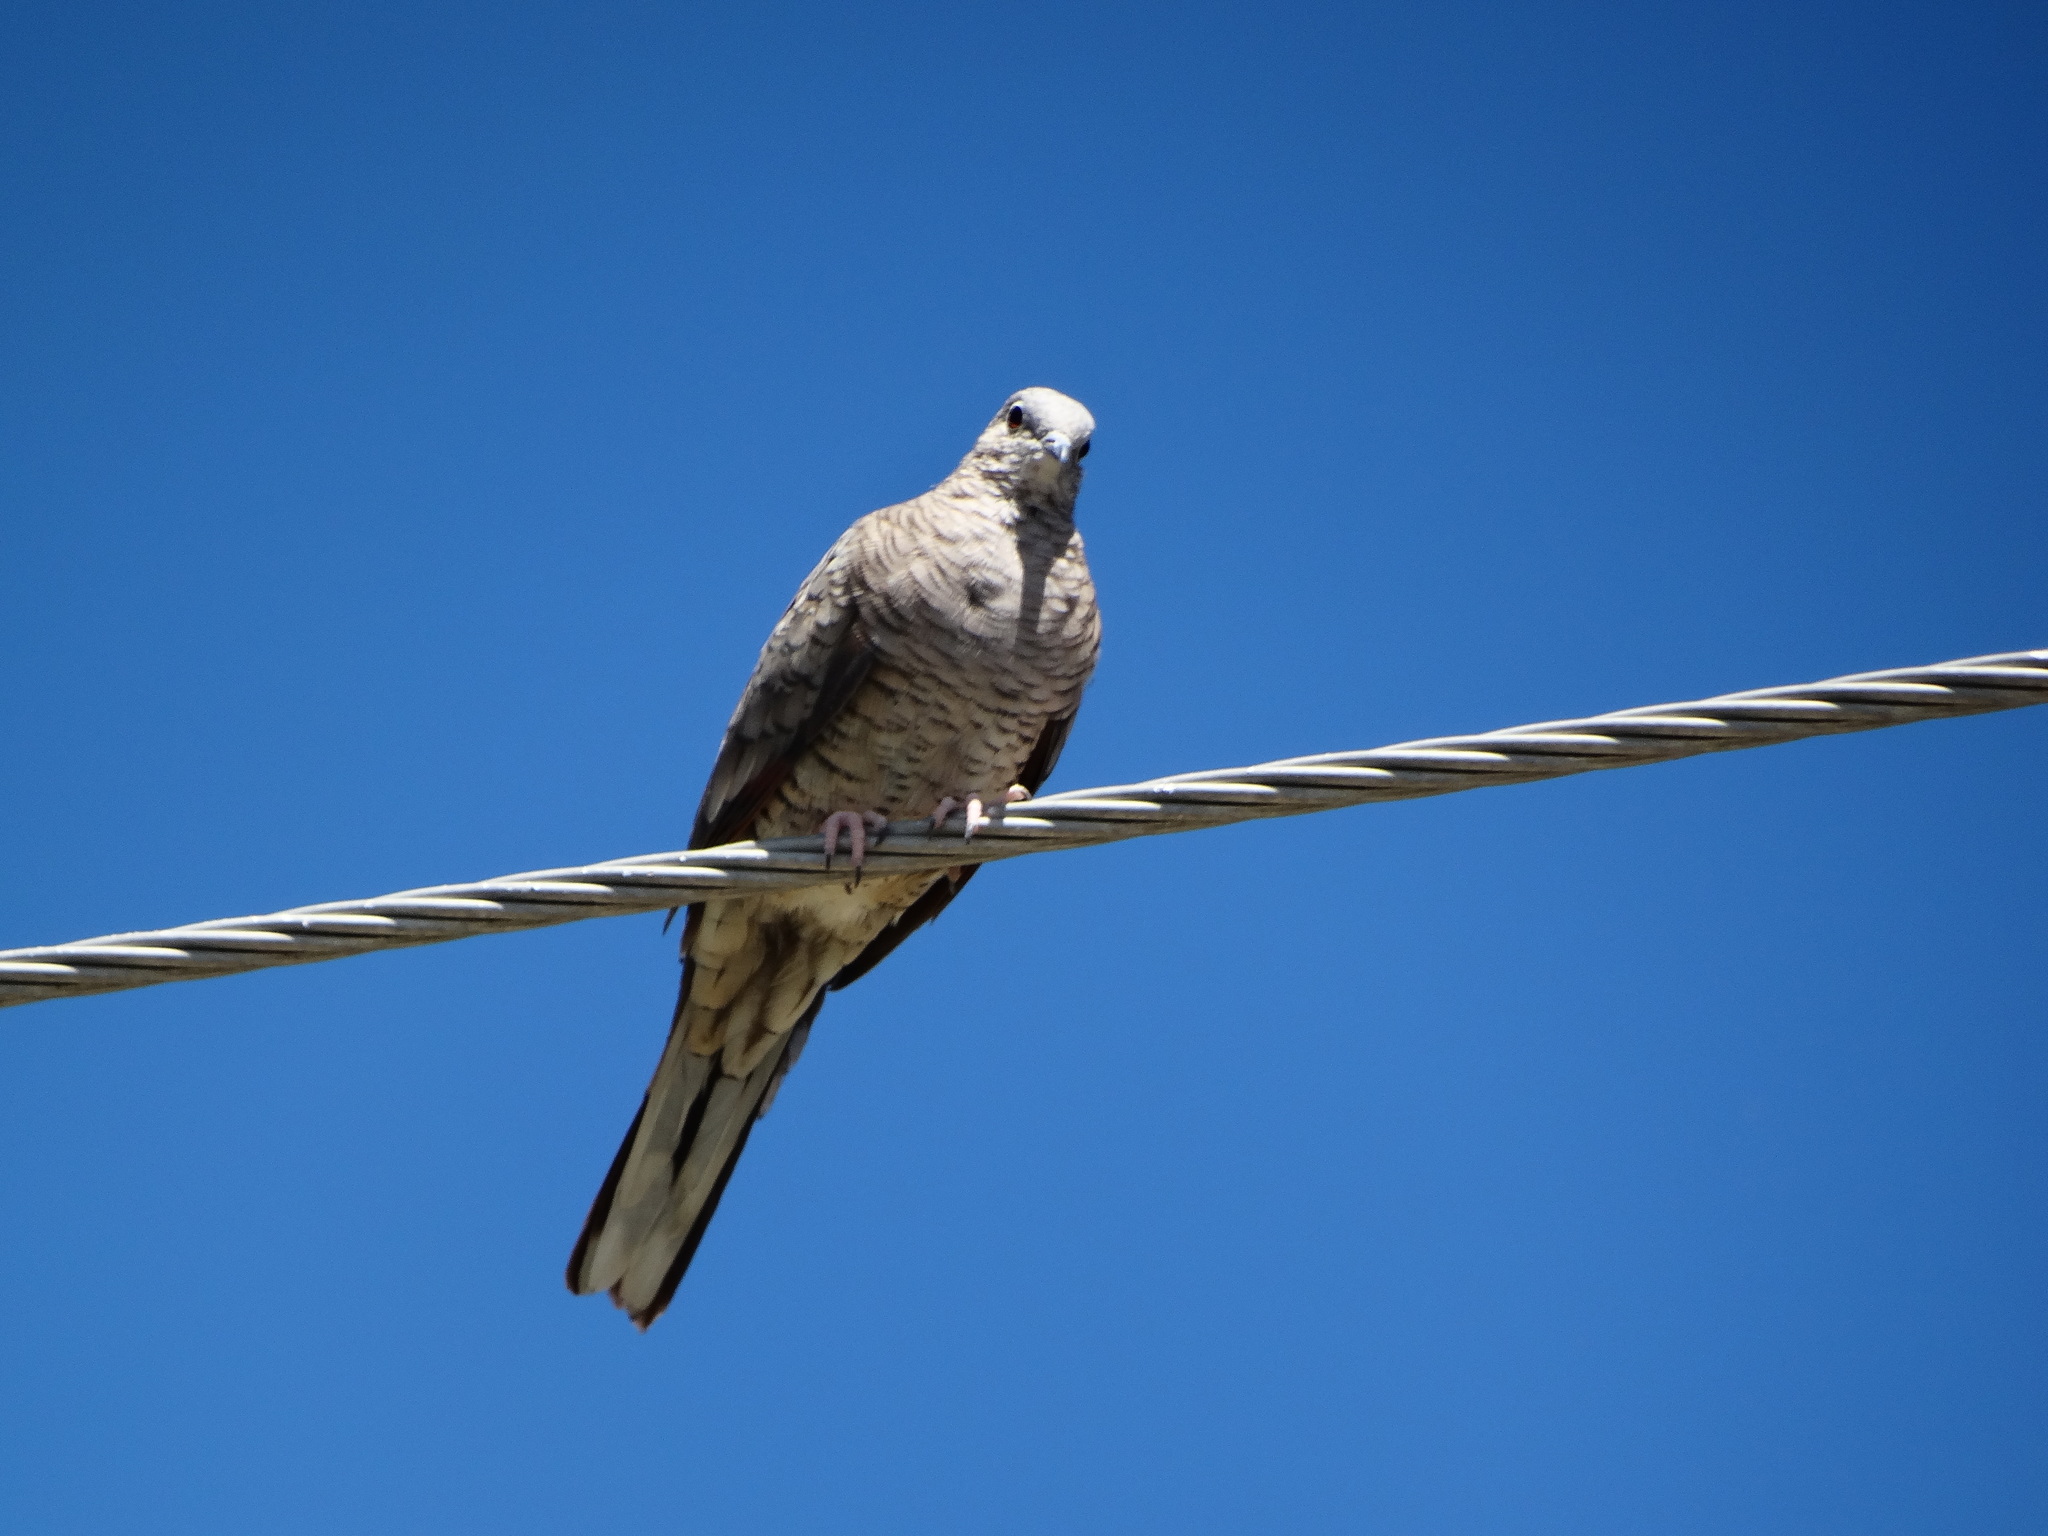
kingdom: Animalia
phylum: Chordata
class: Aves
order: Columbiformes
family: Columbidae
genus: Columbina
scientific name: Columbina inca
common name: Inca dove
